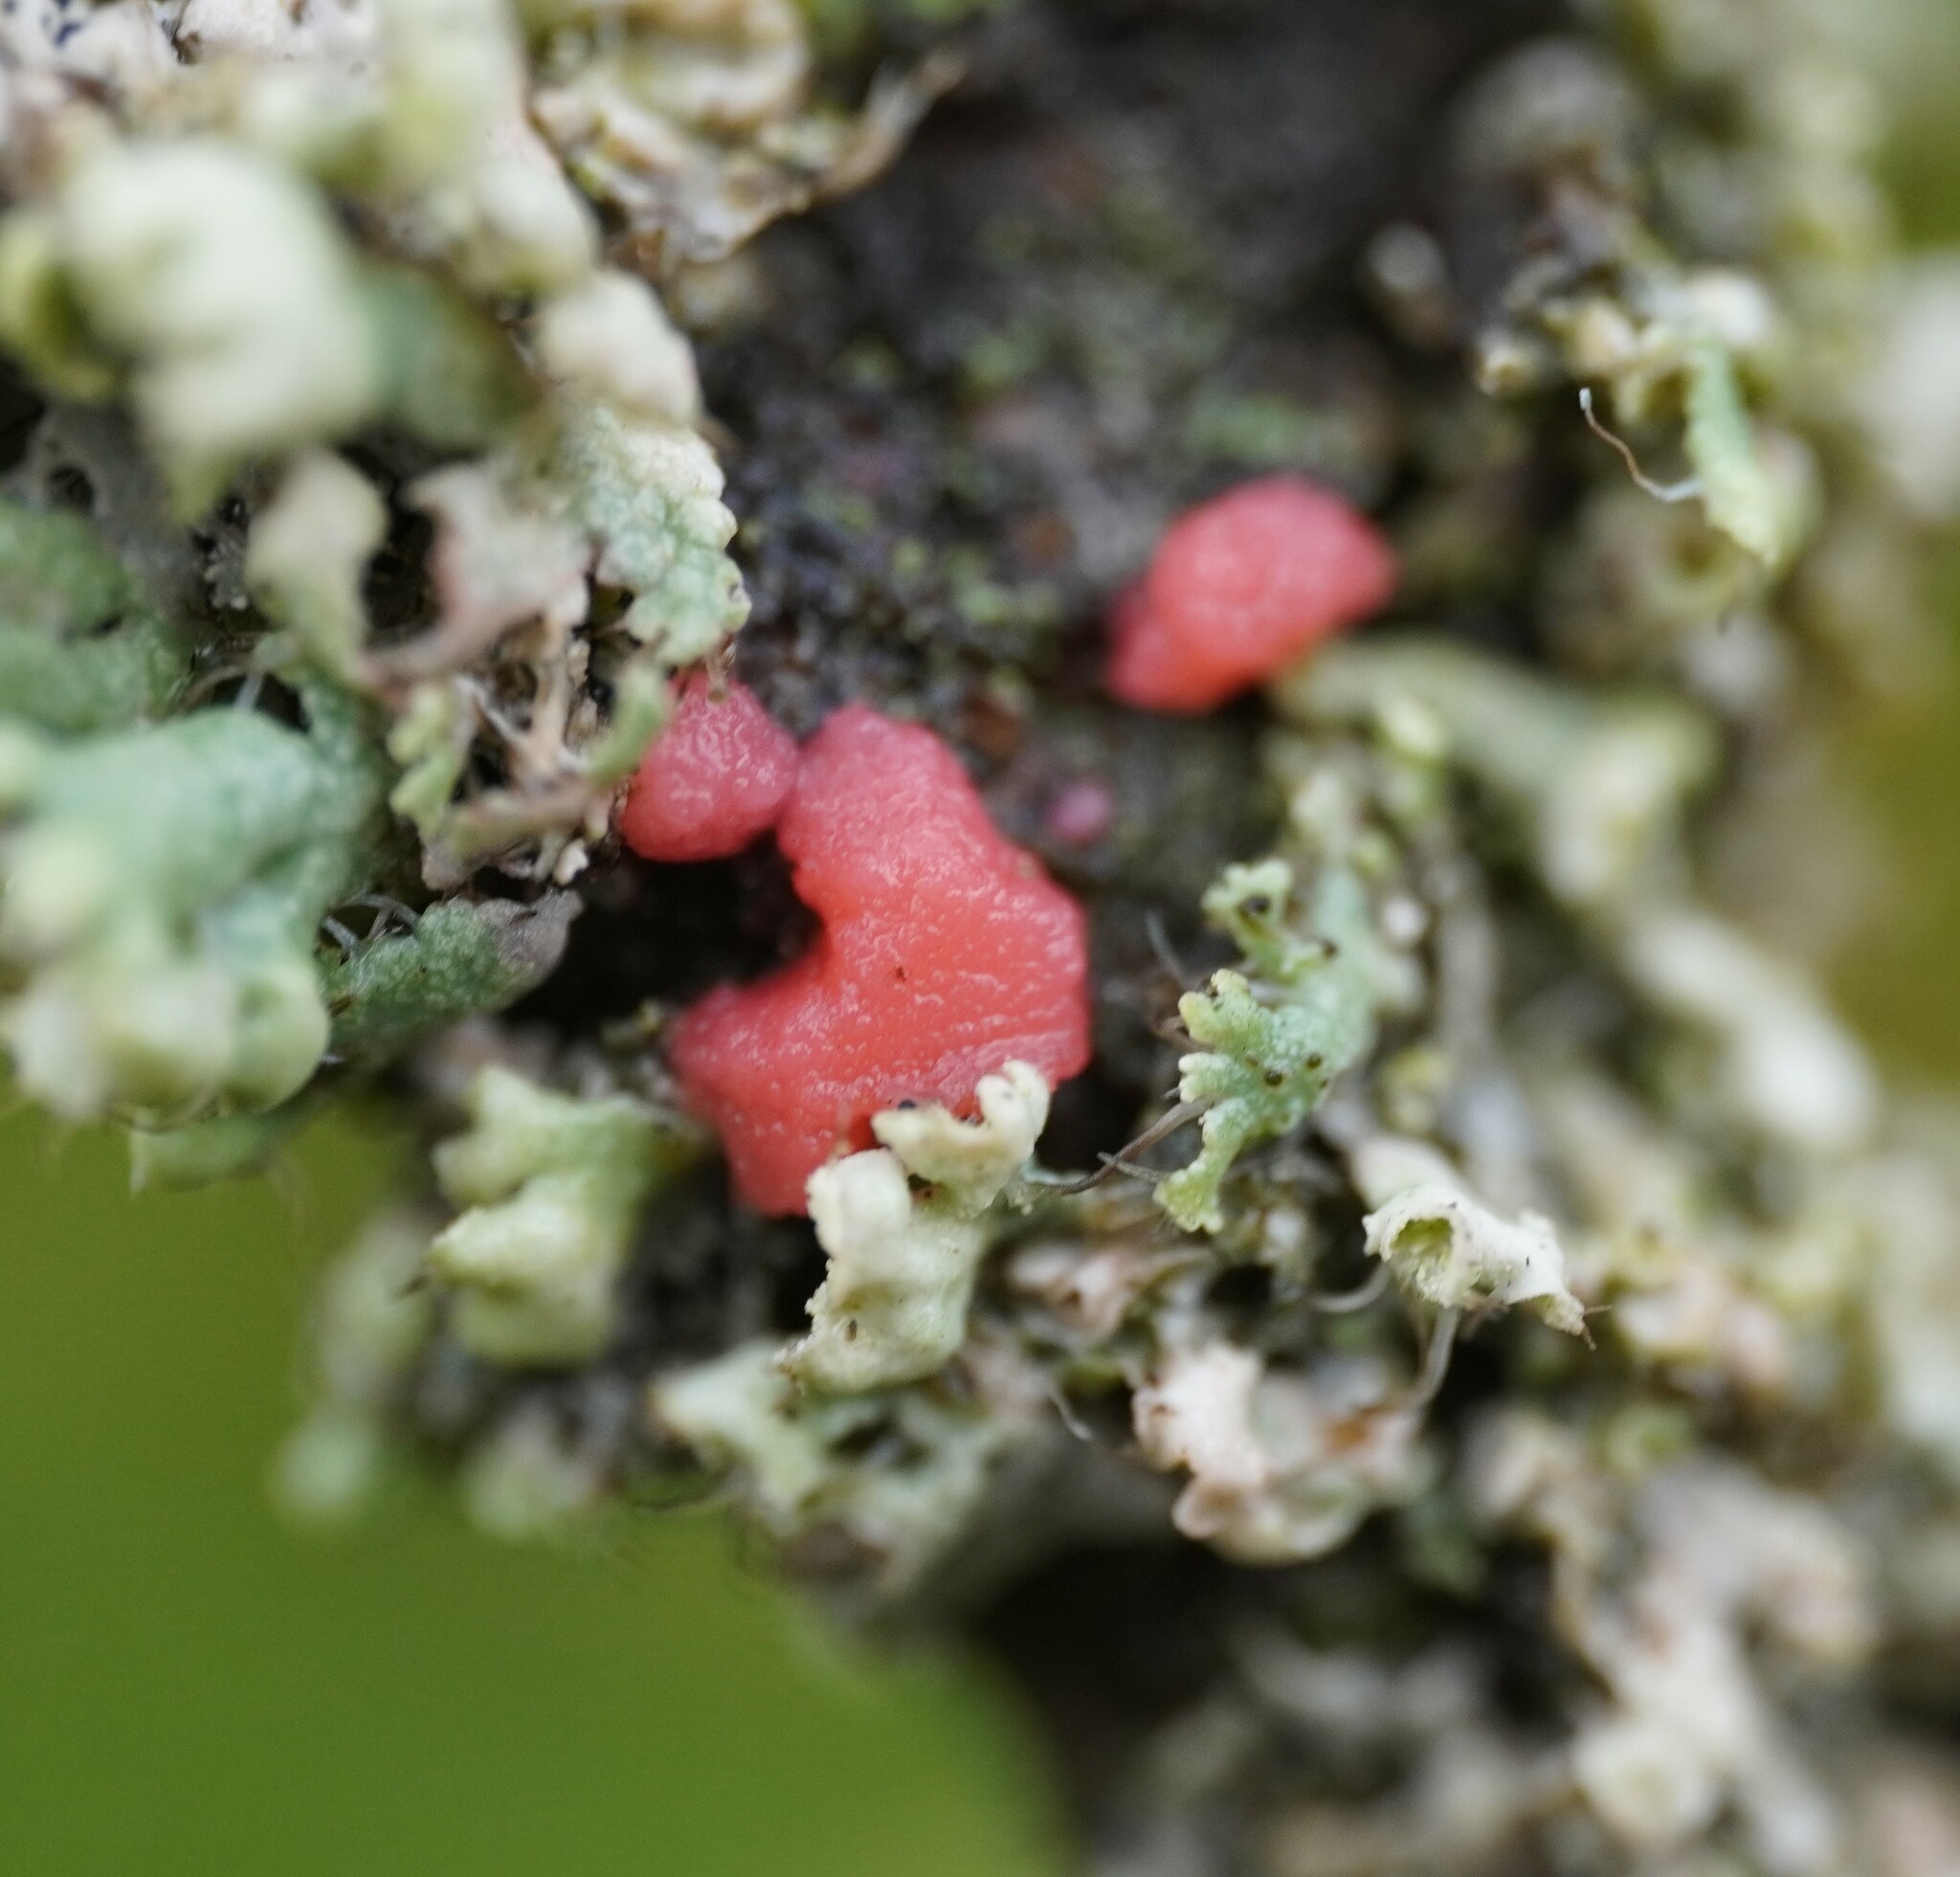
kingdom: Fungi
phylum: Ascomycota
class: Sordariomycetes
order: Hypocreales
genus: Illosporiopsis
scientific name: Illosporiopsis christiansenii
